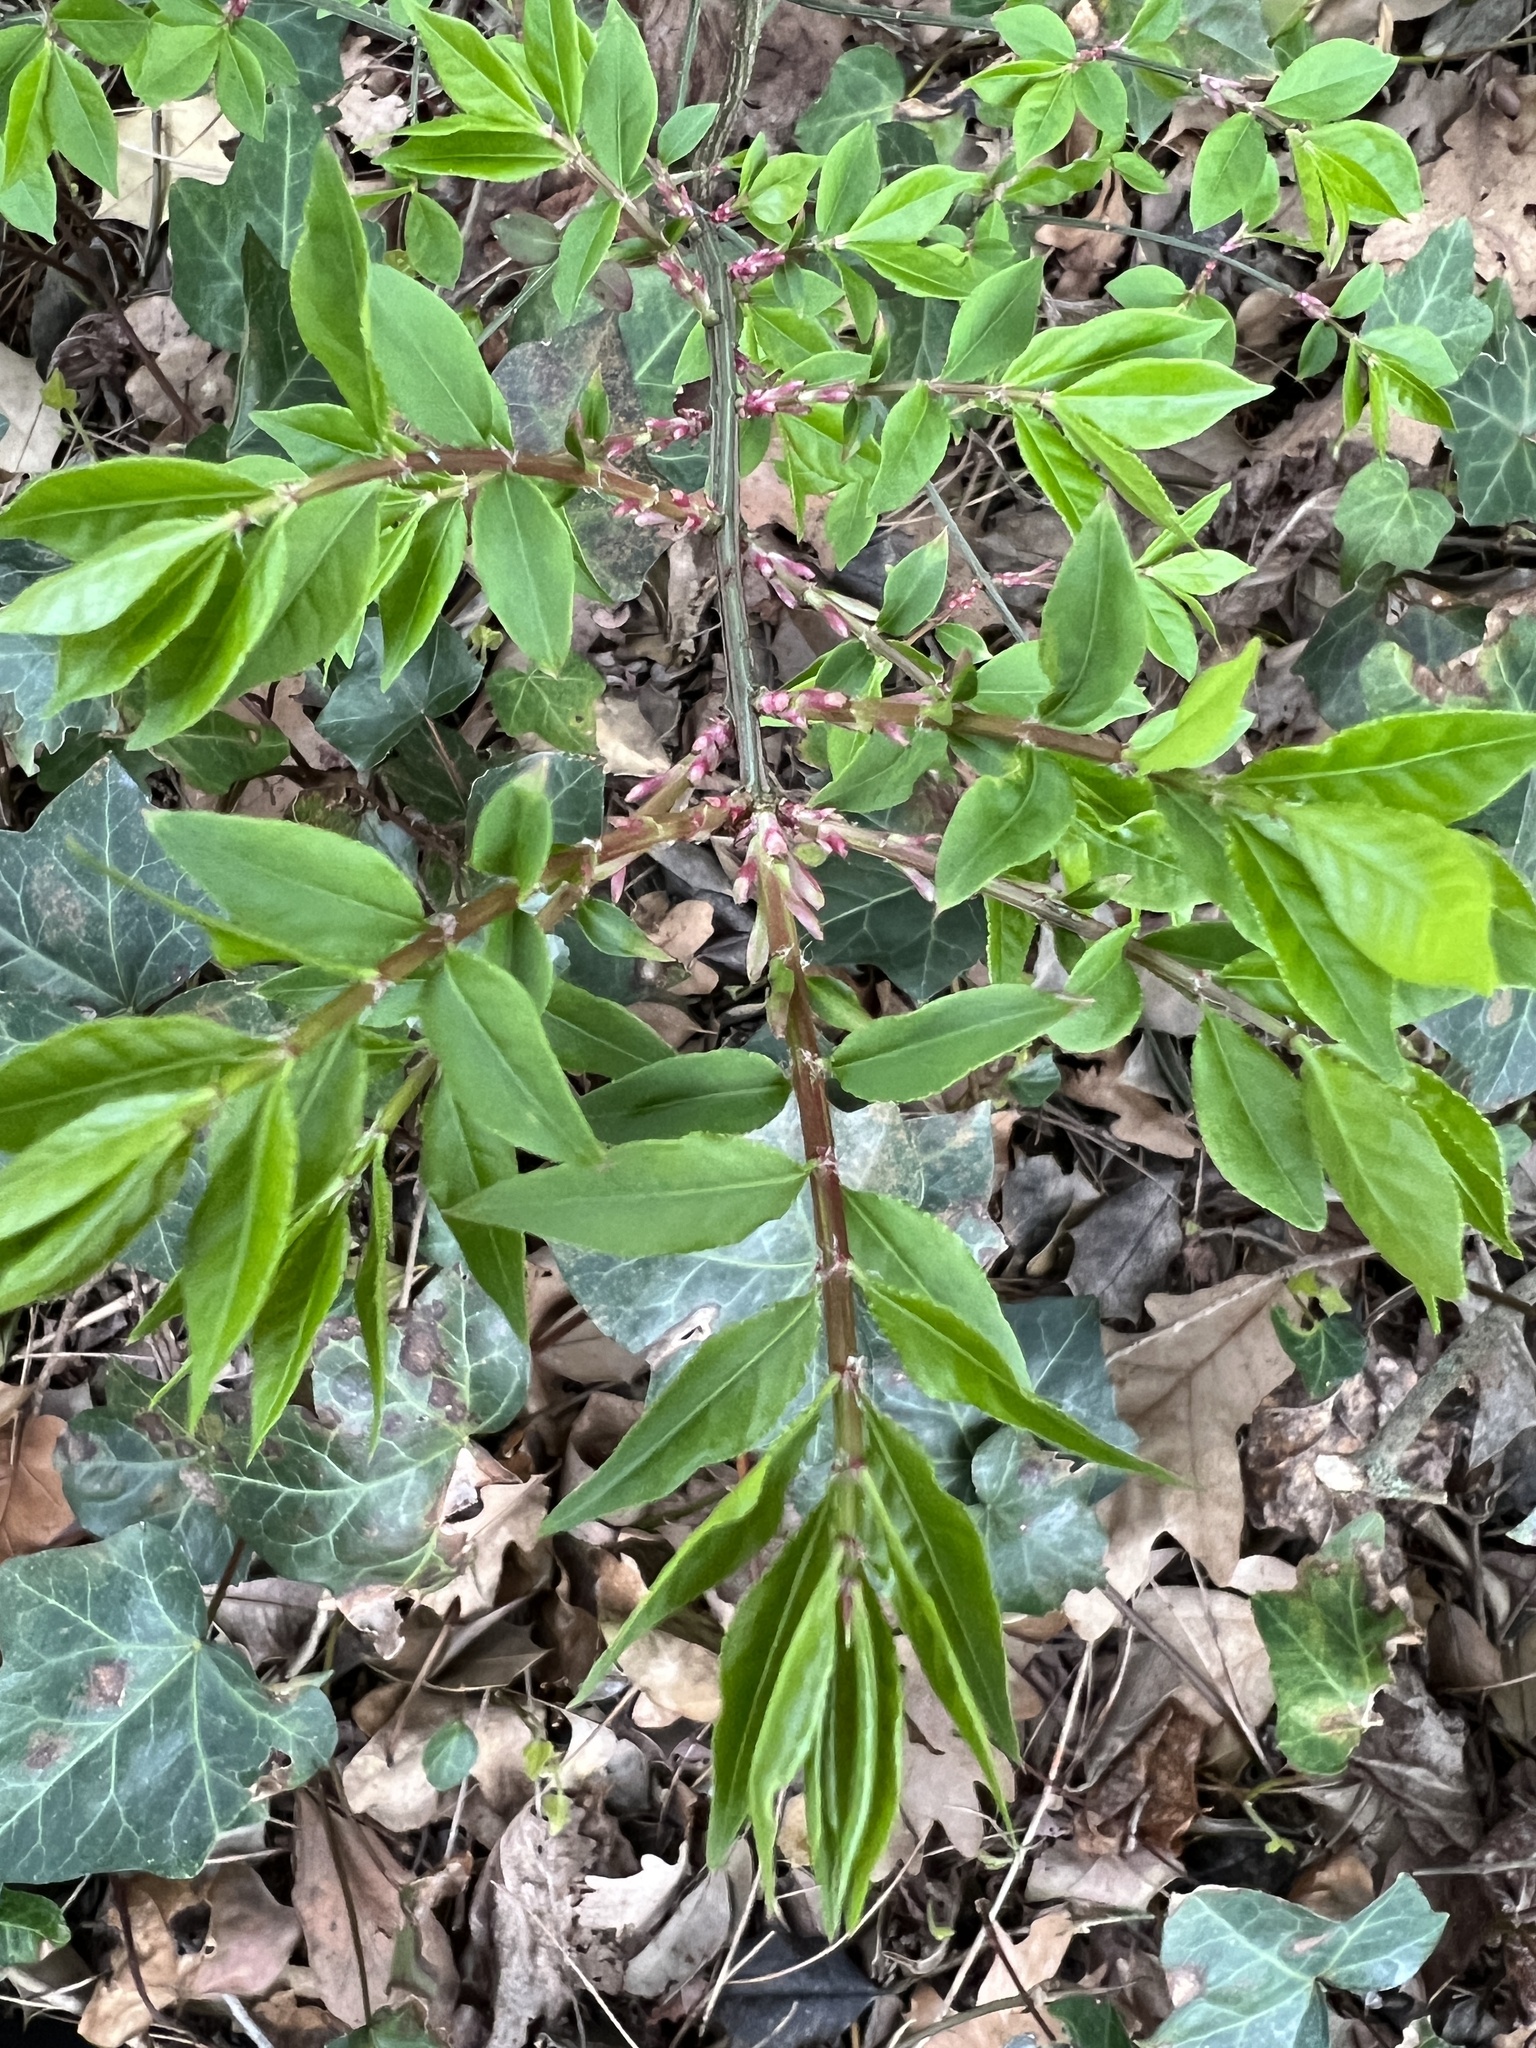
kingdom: Plantae
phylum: Tracheophyta
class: Magnoliopsida
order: Celastrales
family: Celastraceae
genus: Euonymus
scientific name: Euonymus alatus
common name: Winged euonymus
